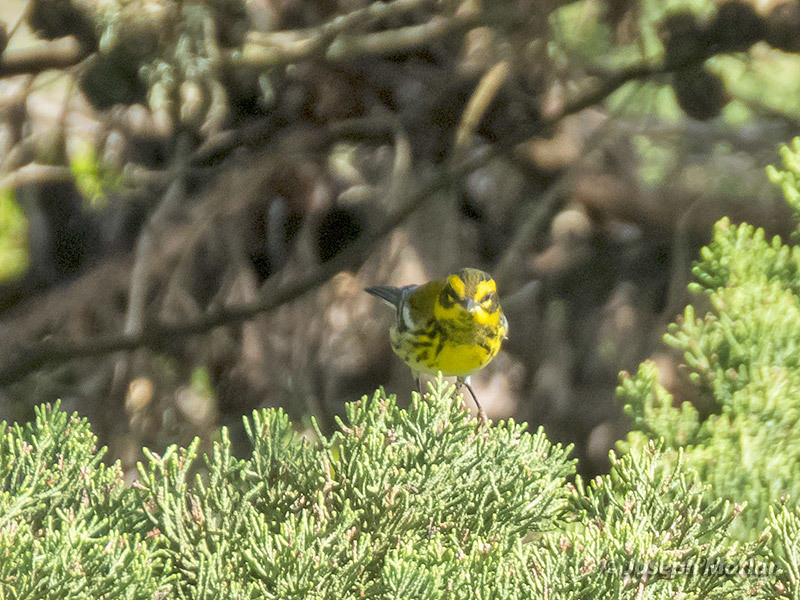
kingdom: Animalia
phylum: Chordata
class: Aves
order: Passeriformes
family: Parulidae
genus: Setophaga
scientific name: Setophaga townsendi
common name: Townsend's warbler
